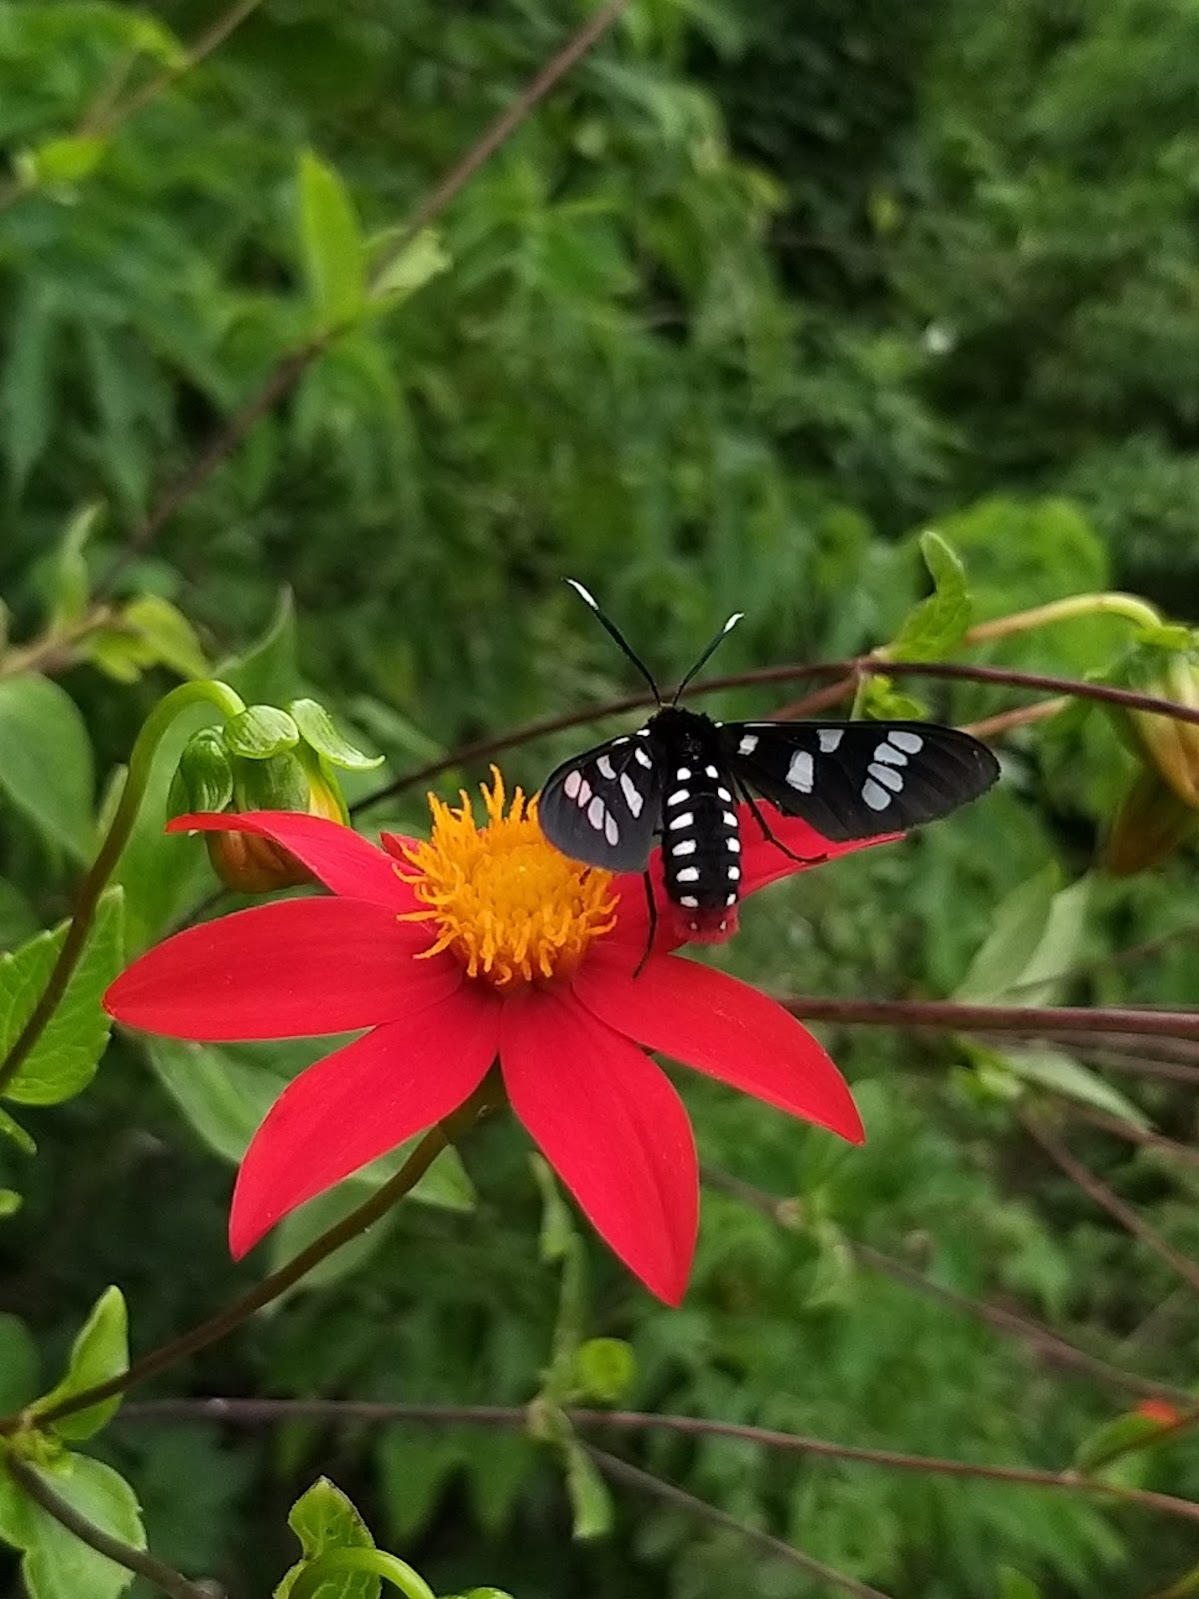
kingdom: Animalia
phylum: Arthropoda
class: Insecta
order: Lepidoptera
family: Erebidae
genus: Eurata
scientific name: Eurata vulcanus
